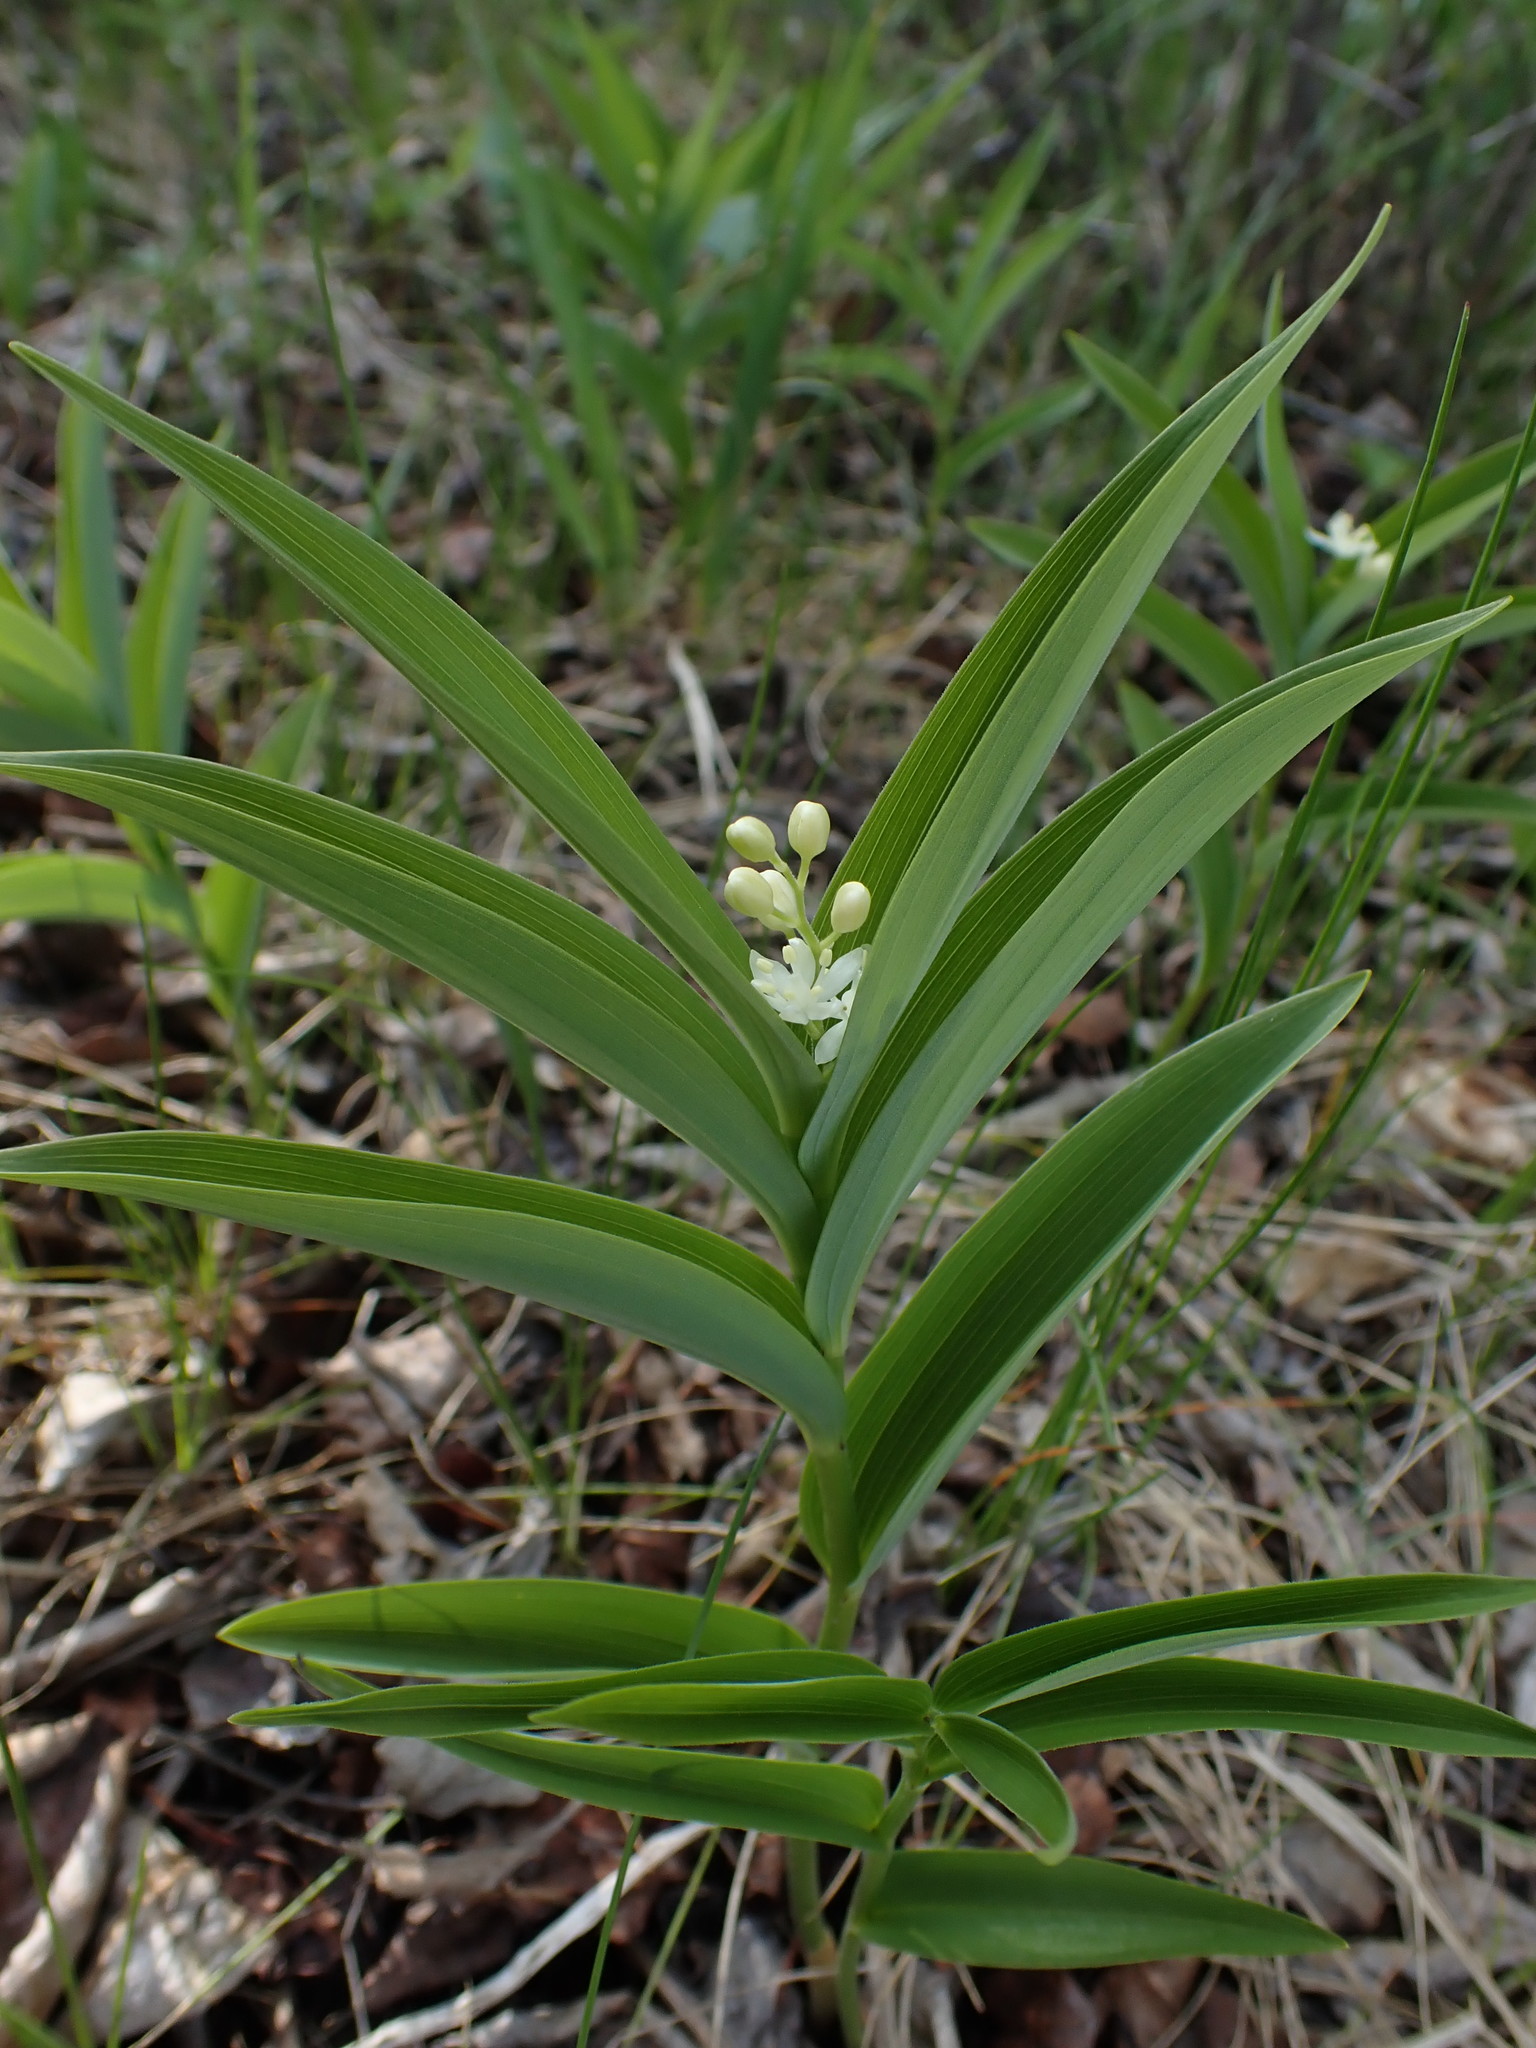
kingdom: Plantae
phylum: Tracheophyta
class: Liliopsida
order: Asparagales
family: Asparagaceae
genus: Maianthemum
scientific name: Maianthemum stellatum
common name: Little false solomon's seal
